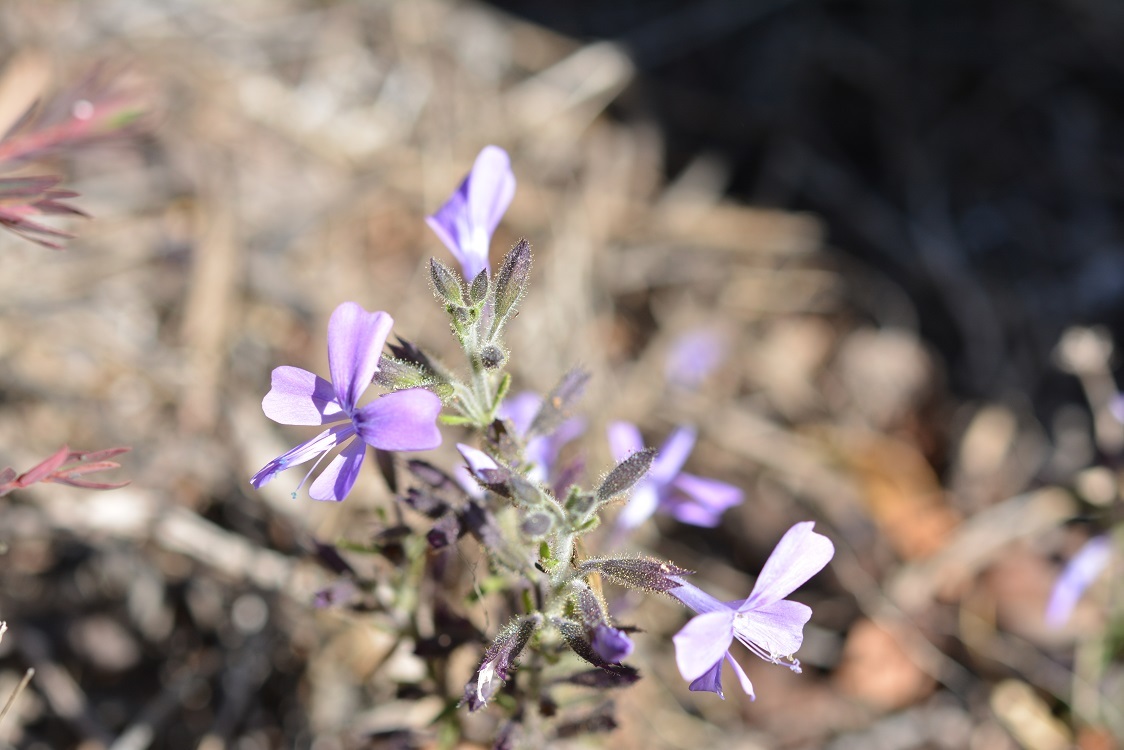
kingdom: Plantae
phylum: Tracheophyta
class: Magnoliopsida
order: Ericales
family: Polemoniaceae
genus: Bonplandia
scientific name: Bonplandia geminiflora
